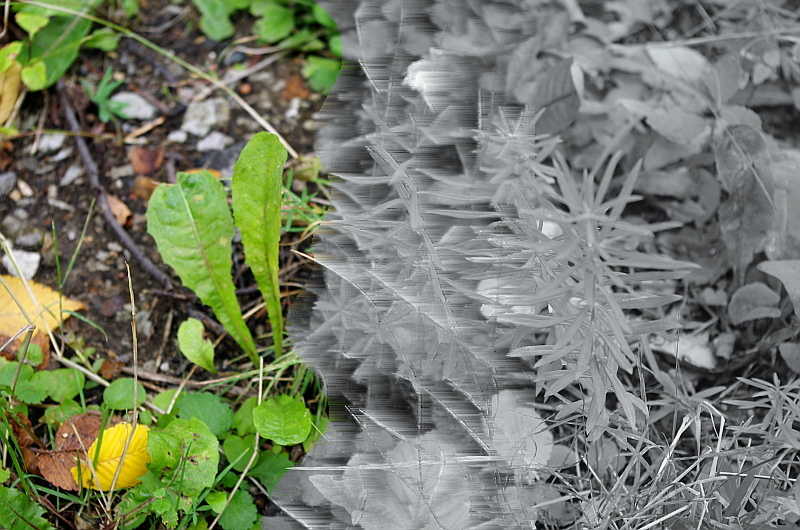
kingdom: Plantae
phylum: Tracheophyta
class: Magnoliopsida
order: Asterales
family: Asteraceae
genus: Taraxacum
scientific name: Taraxacum officinale
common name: Common dandelion
